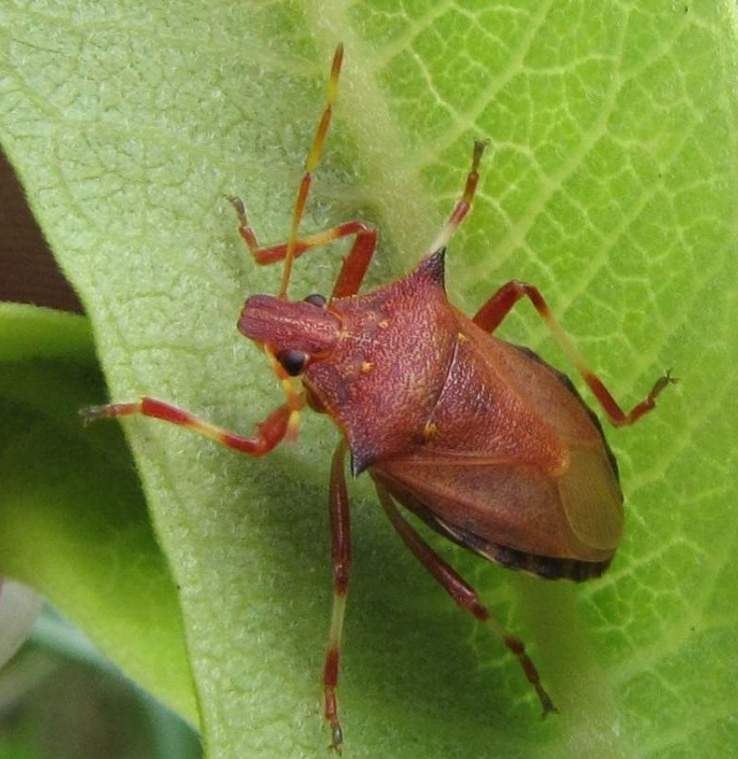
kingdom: Animalia
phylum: Arthropoda
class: Insecta
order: Hemiptera
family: Pentatomidae
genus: Picromerus
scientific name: Picromerus bidens
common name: Spiked shieldbug
